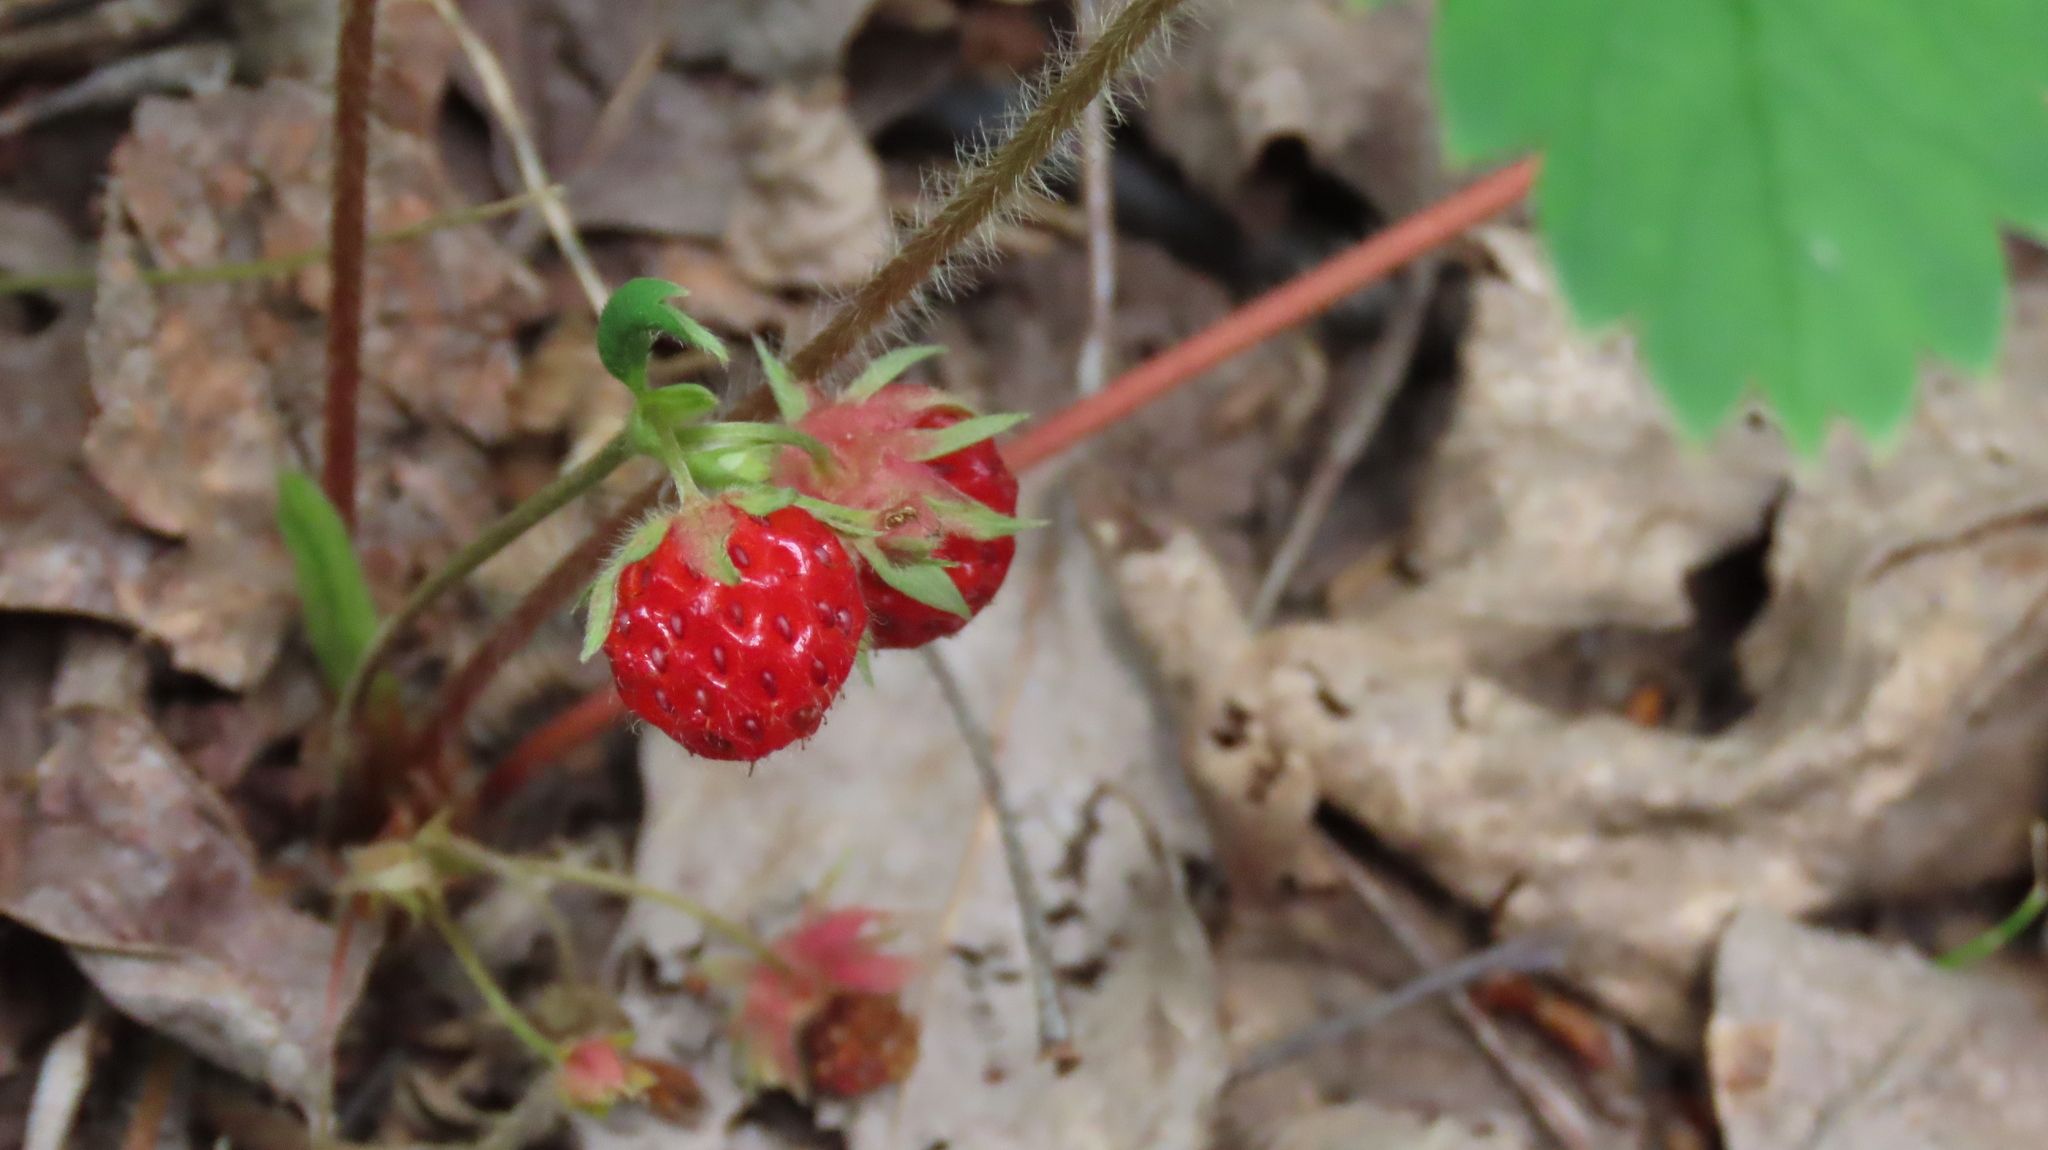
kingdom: Plantae
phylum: Tracheophyta
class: Magnoliopsida
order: Rosales
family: Rosaceae
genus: Fragaria
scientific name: Fragaria virginiana
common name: Thickleaved wild strawberry
